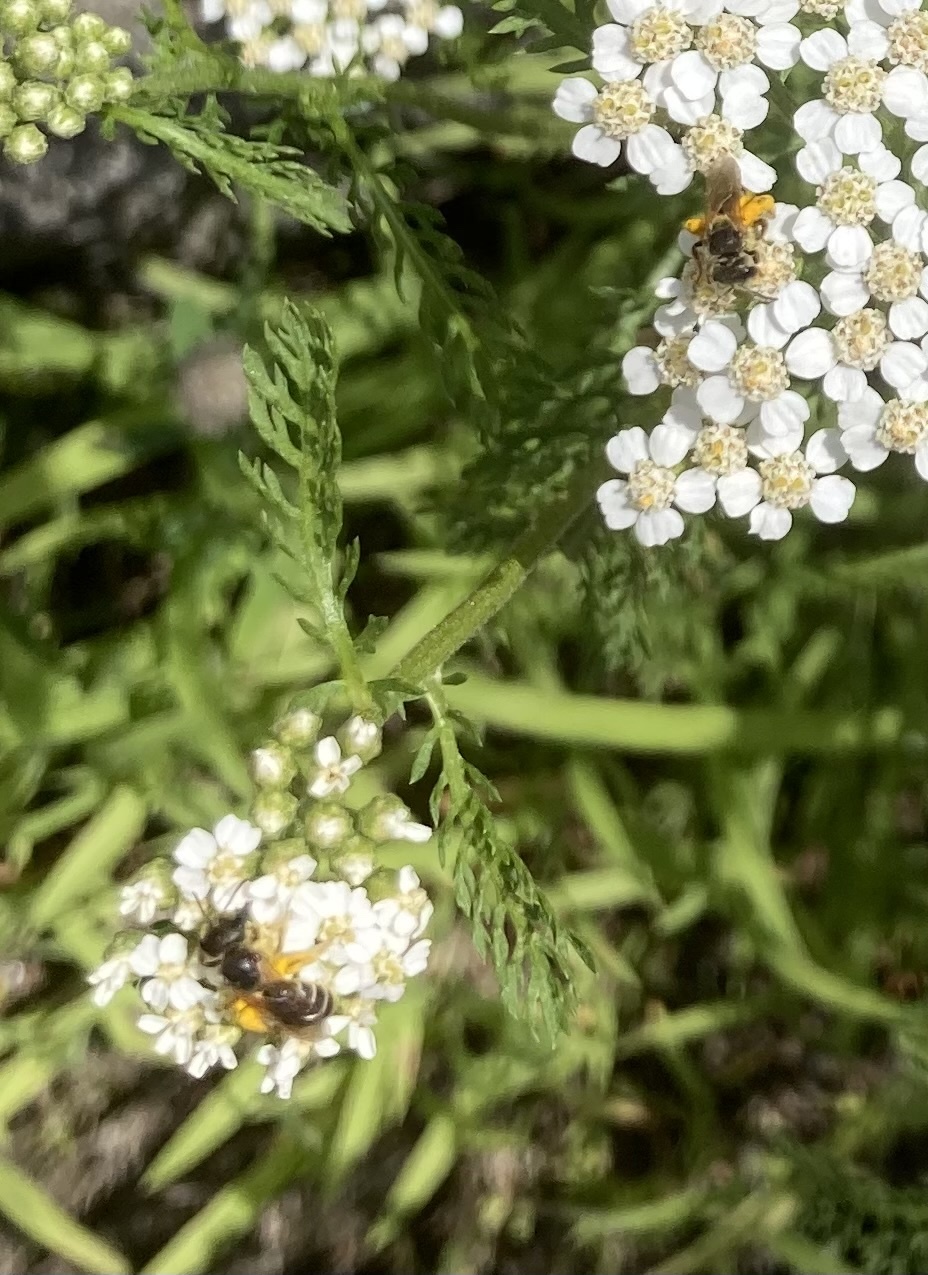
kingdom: Animalia
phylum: Arthropoda
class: Insecta
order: Hymenoptera
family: Halictidae
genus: Halictus
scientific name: Halictus ligatus
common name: Ligated furrow bee
